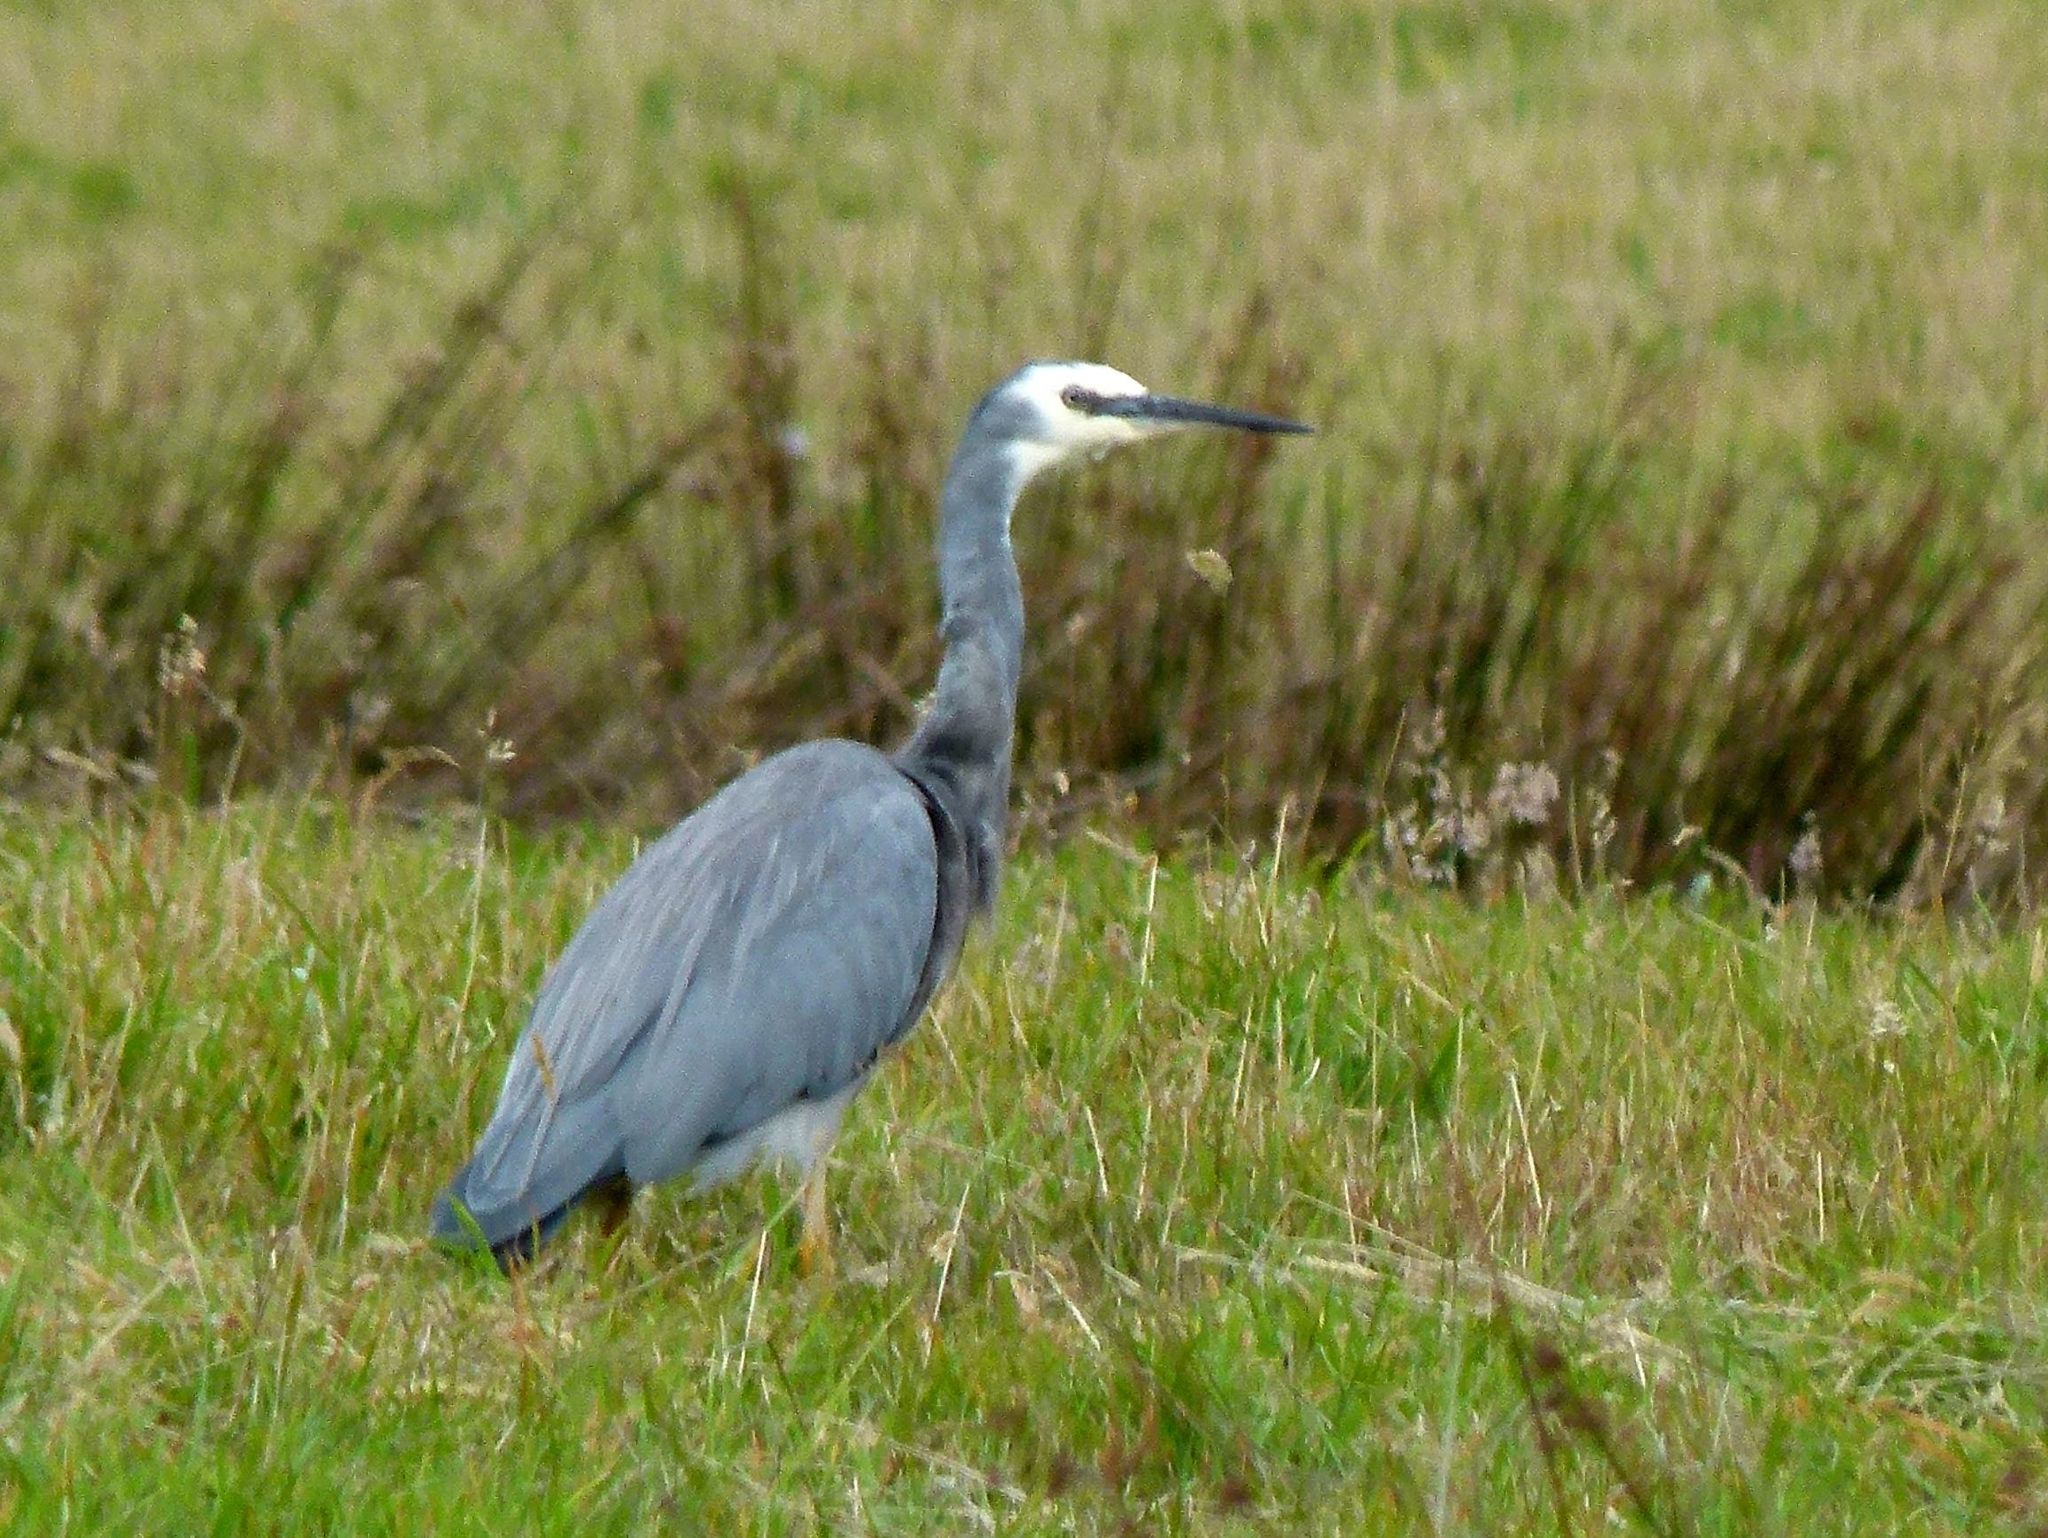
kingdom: Animalia
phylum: Chordata
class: Aves
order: Pelecaniformes
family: Ardeidae
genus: Egretta
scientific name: Egretta novaehollandiae
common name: White-faced heron
